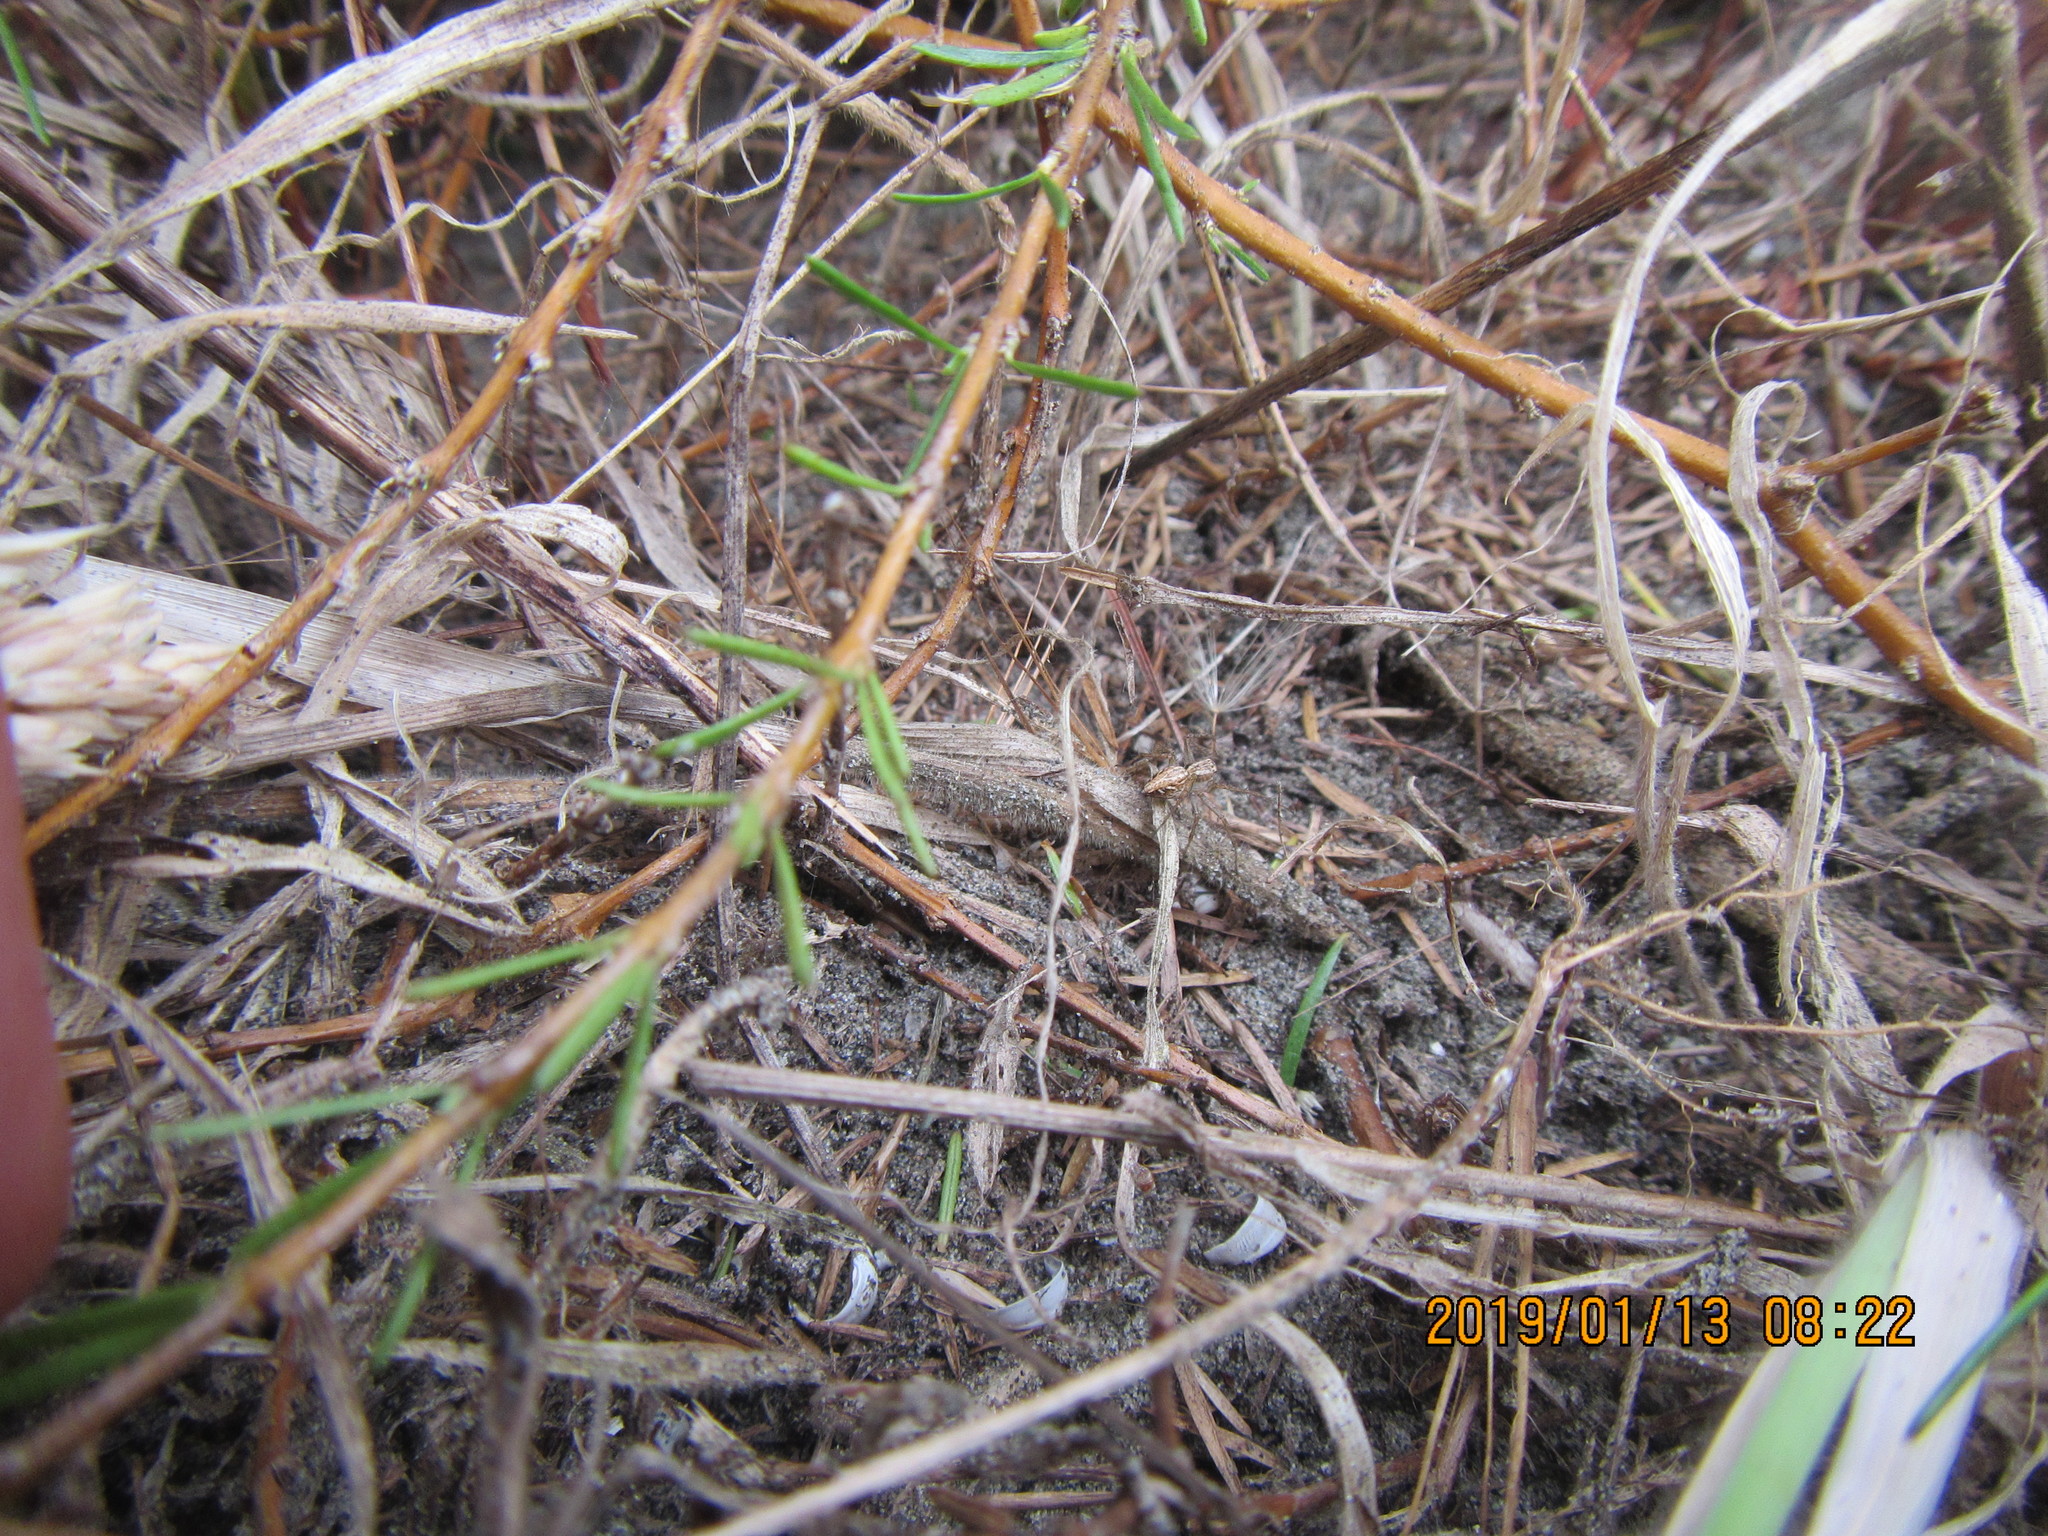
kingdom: Animalia
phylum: Arthropoda
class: Arachnida
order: Araneae
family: Oxyopidae
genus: Oxyopes
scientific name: Oxyopes gracilipes
